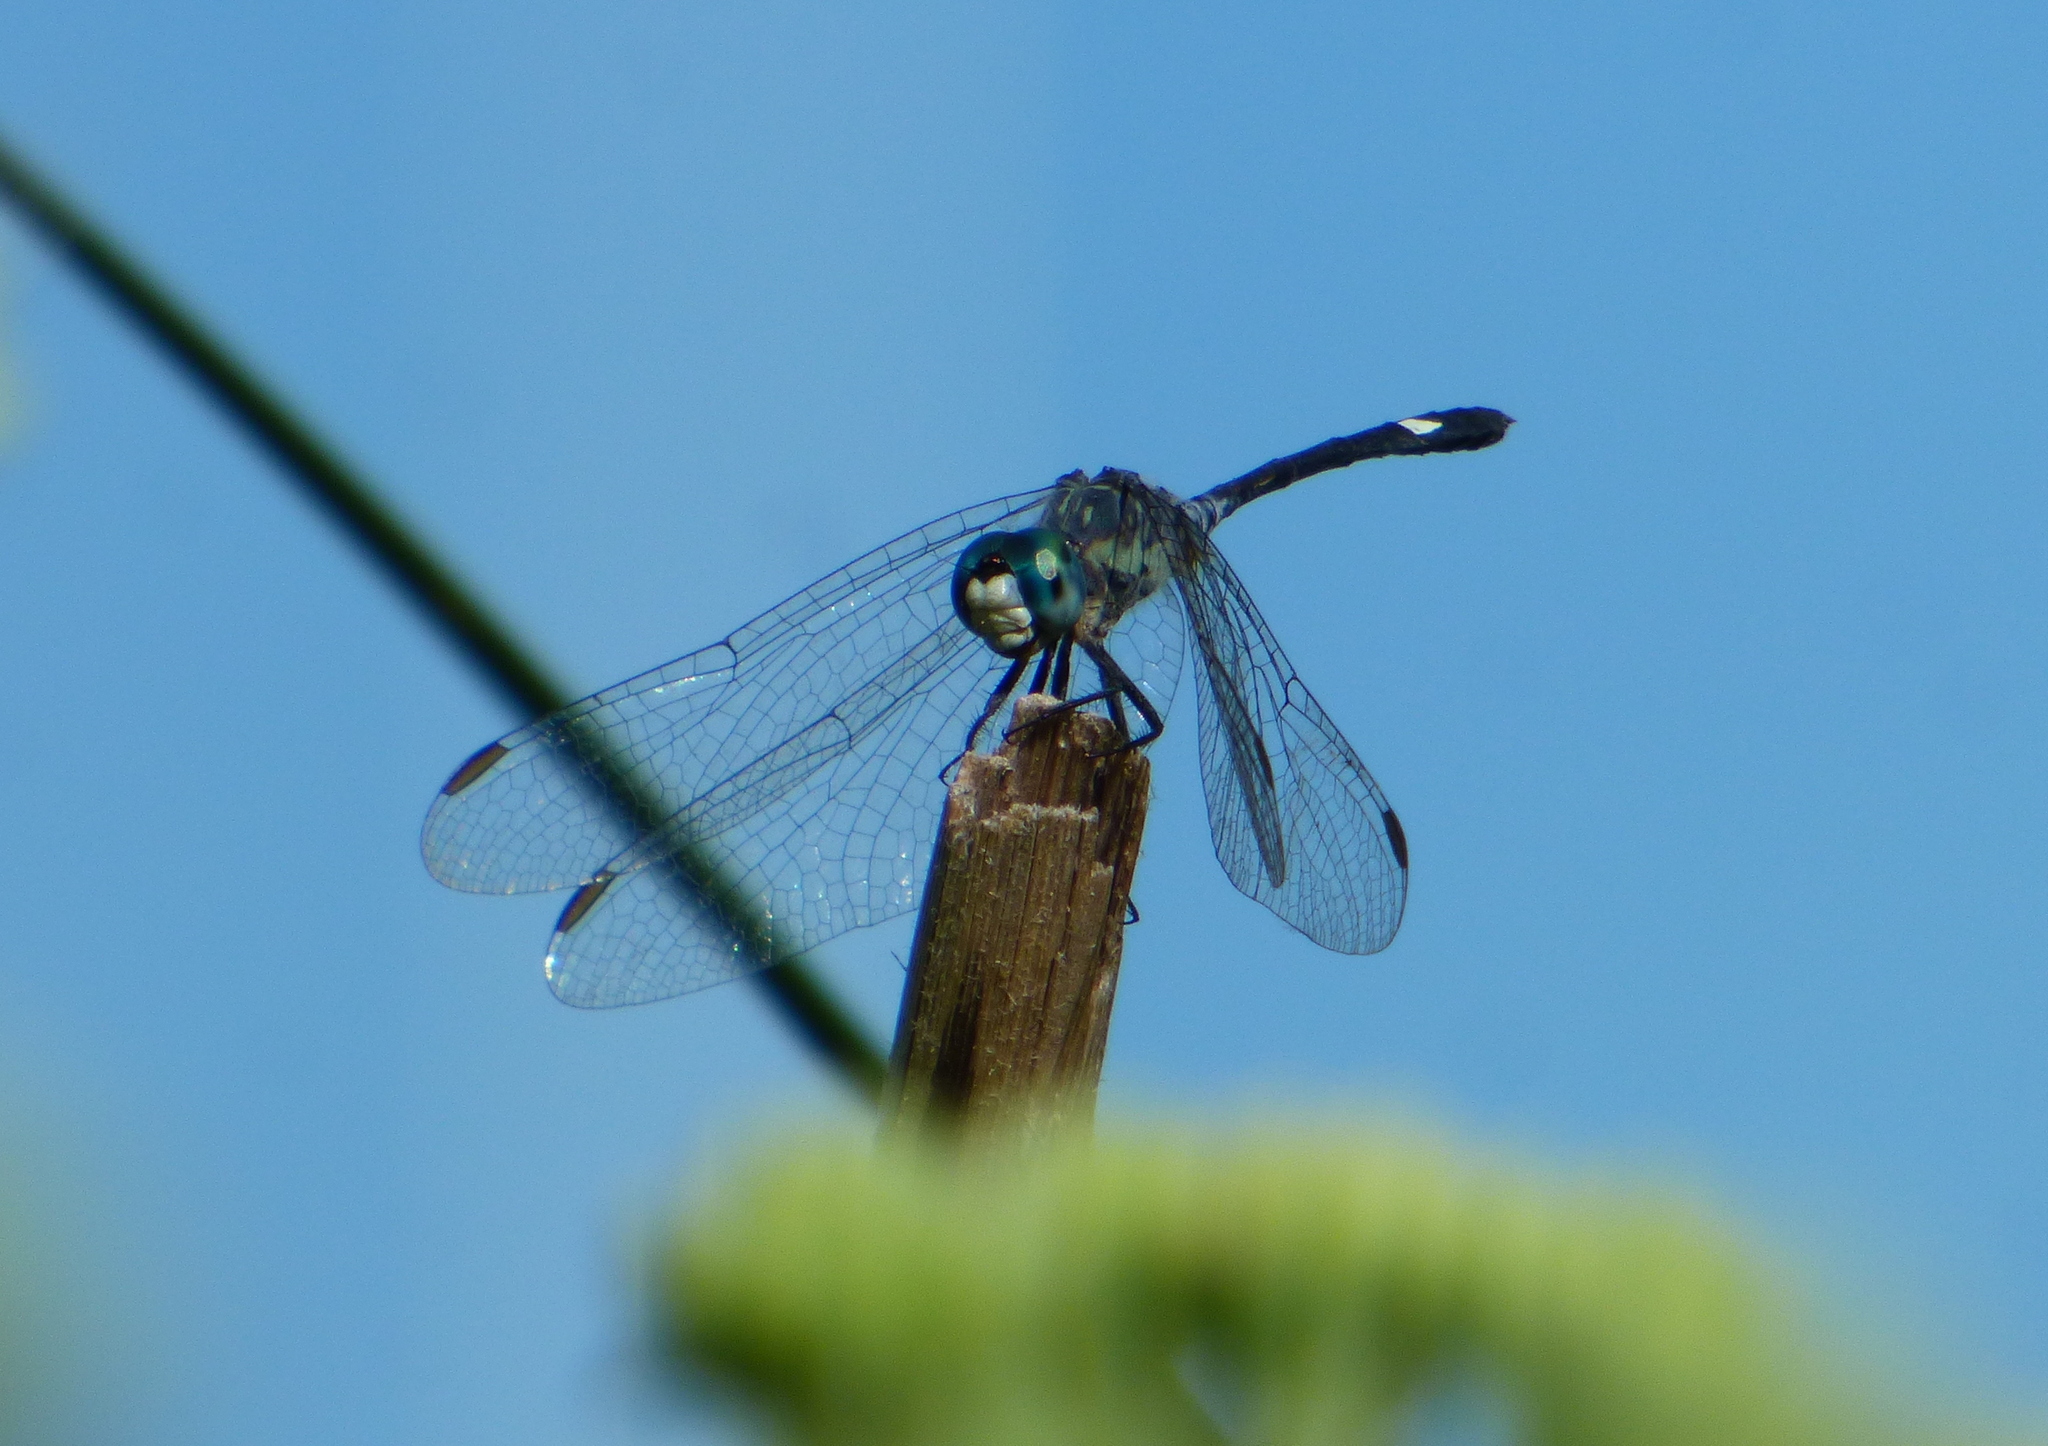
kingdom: Animalia
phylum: Arthropoda
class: Insecta
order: Odonata
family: Libellulidae
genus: Micrathyria
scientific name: Micrathyria longifasciata
